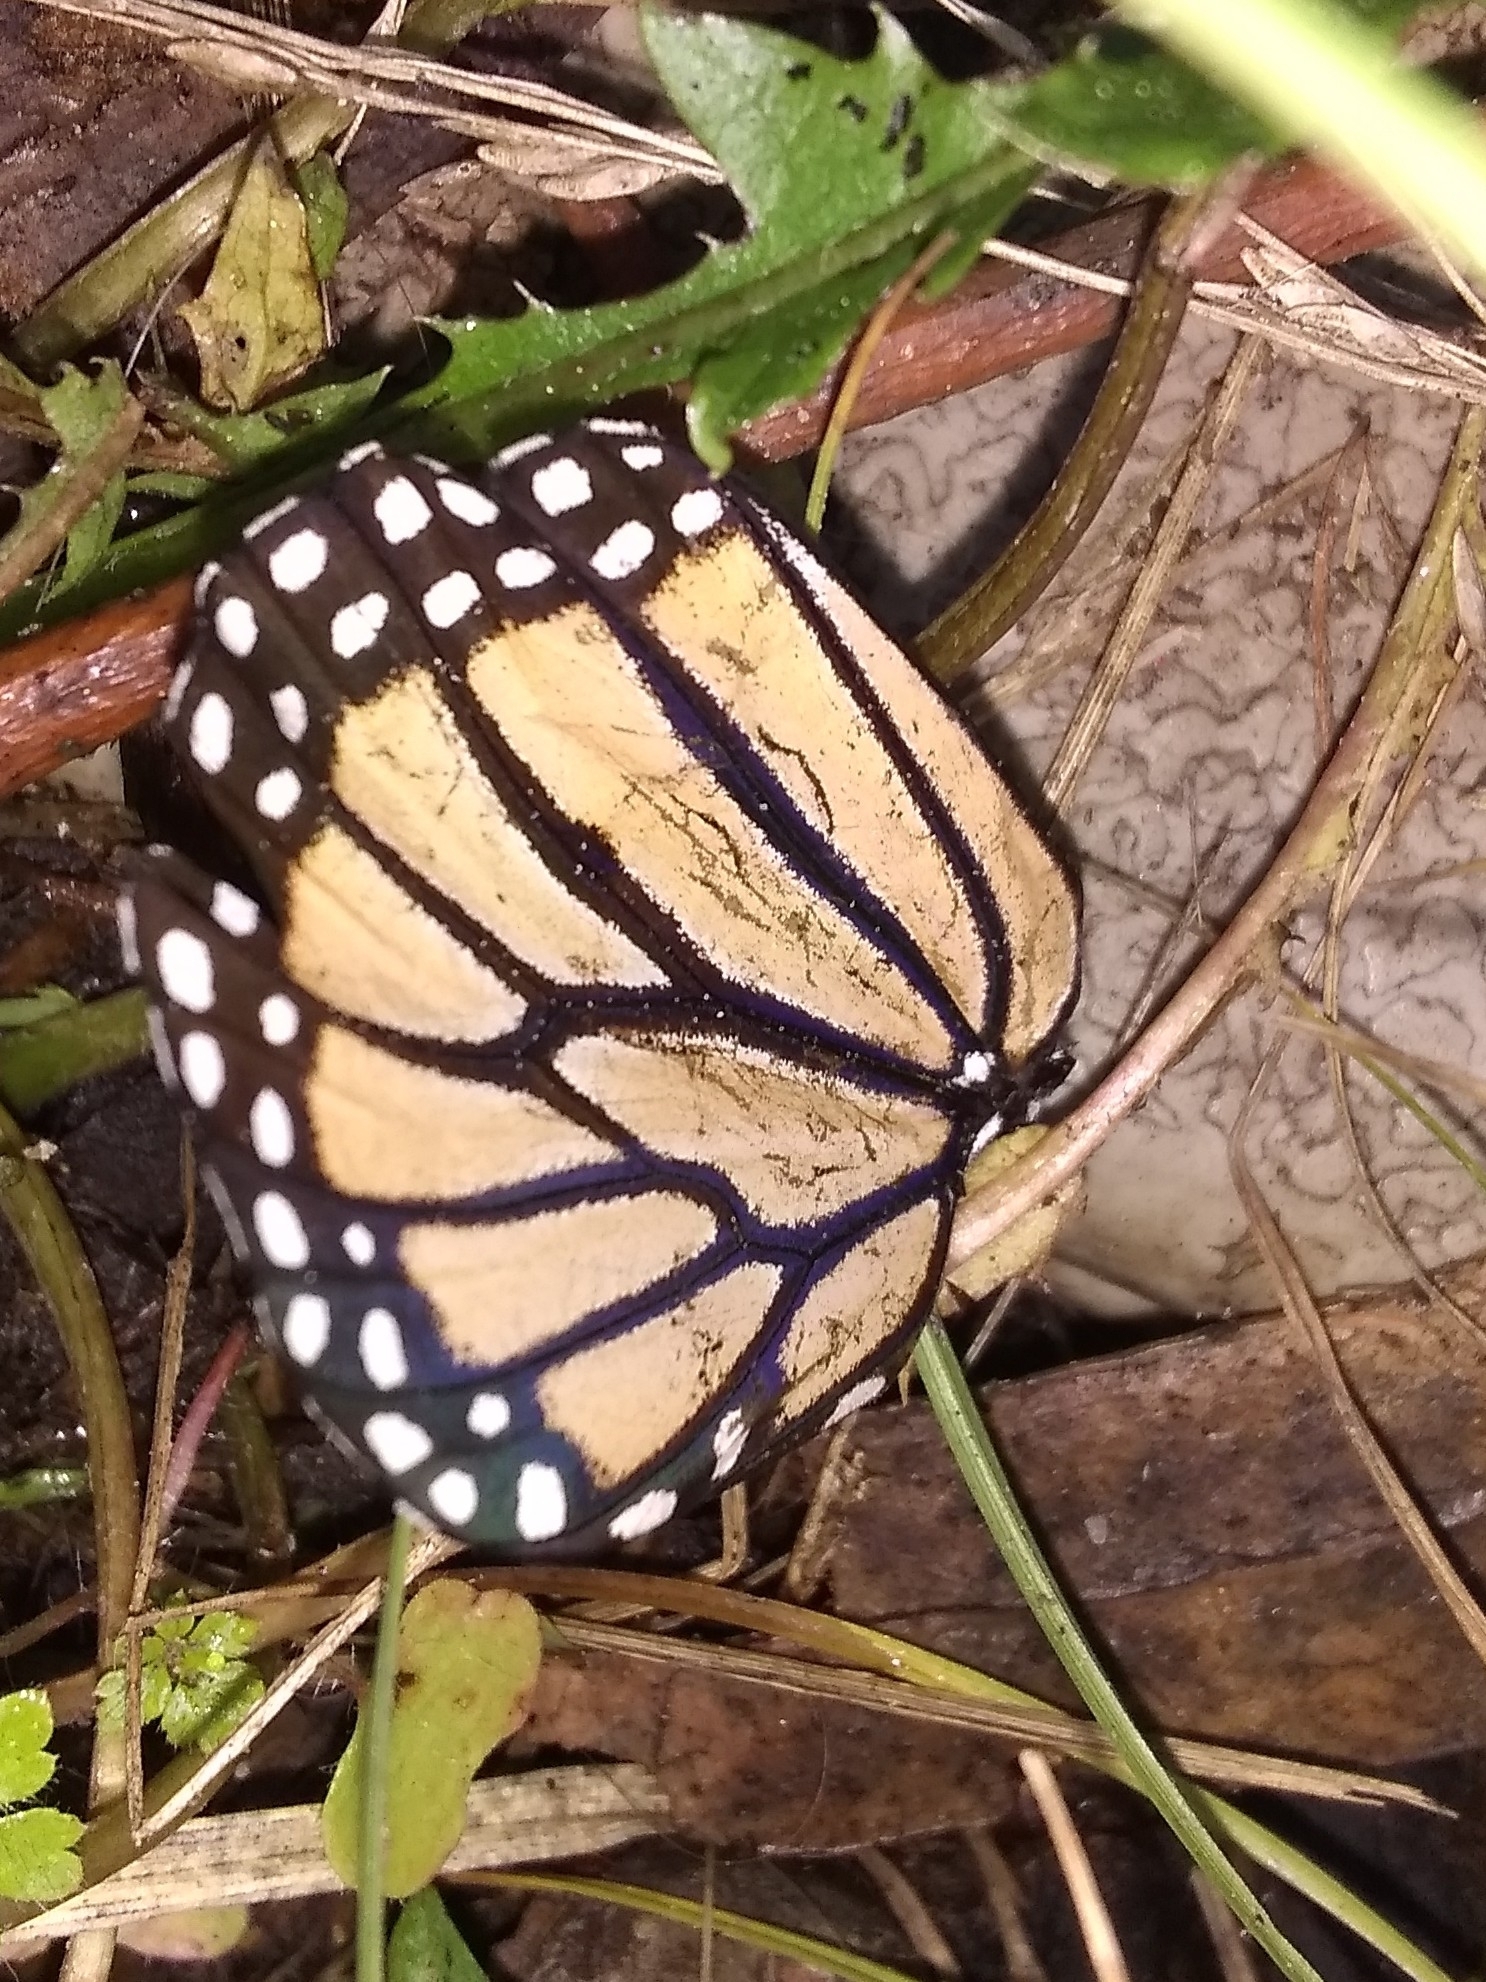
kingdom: Animalia
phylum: Arthropoda
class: Insecta
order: Lepidoptera
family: Nymphalidae
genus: Danaus
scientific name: Danaus plexippus
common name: Monarch
